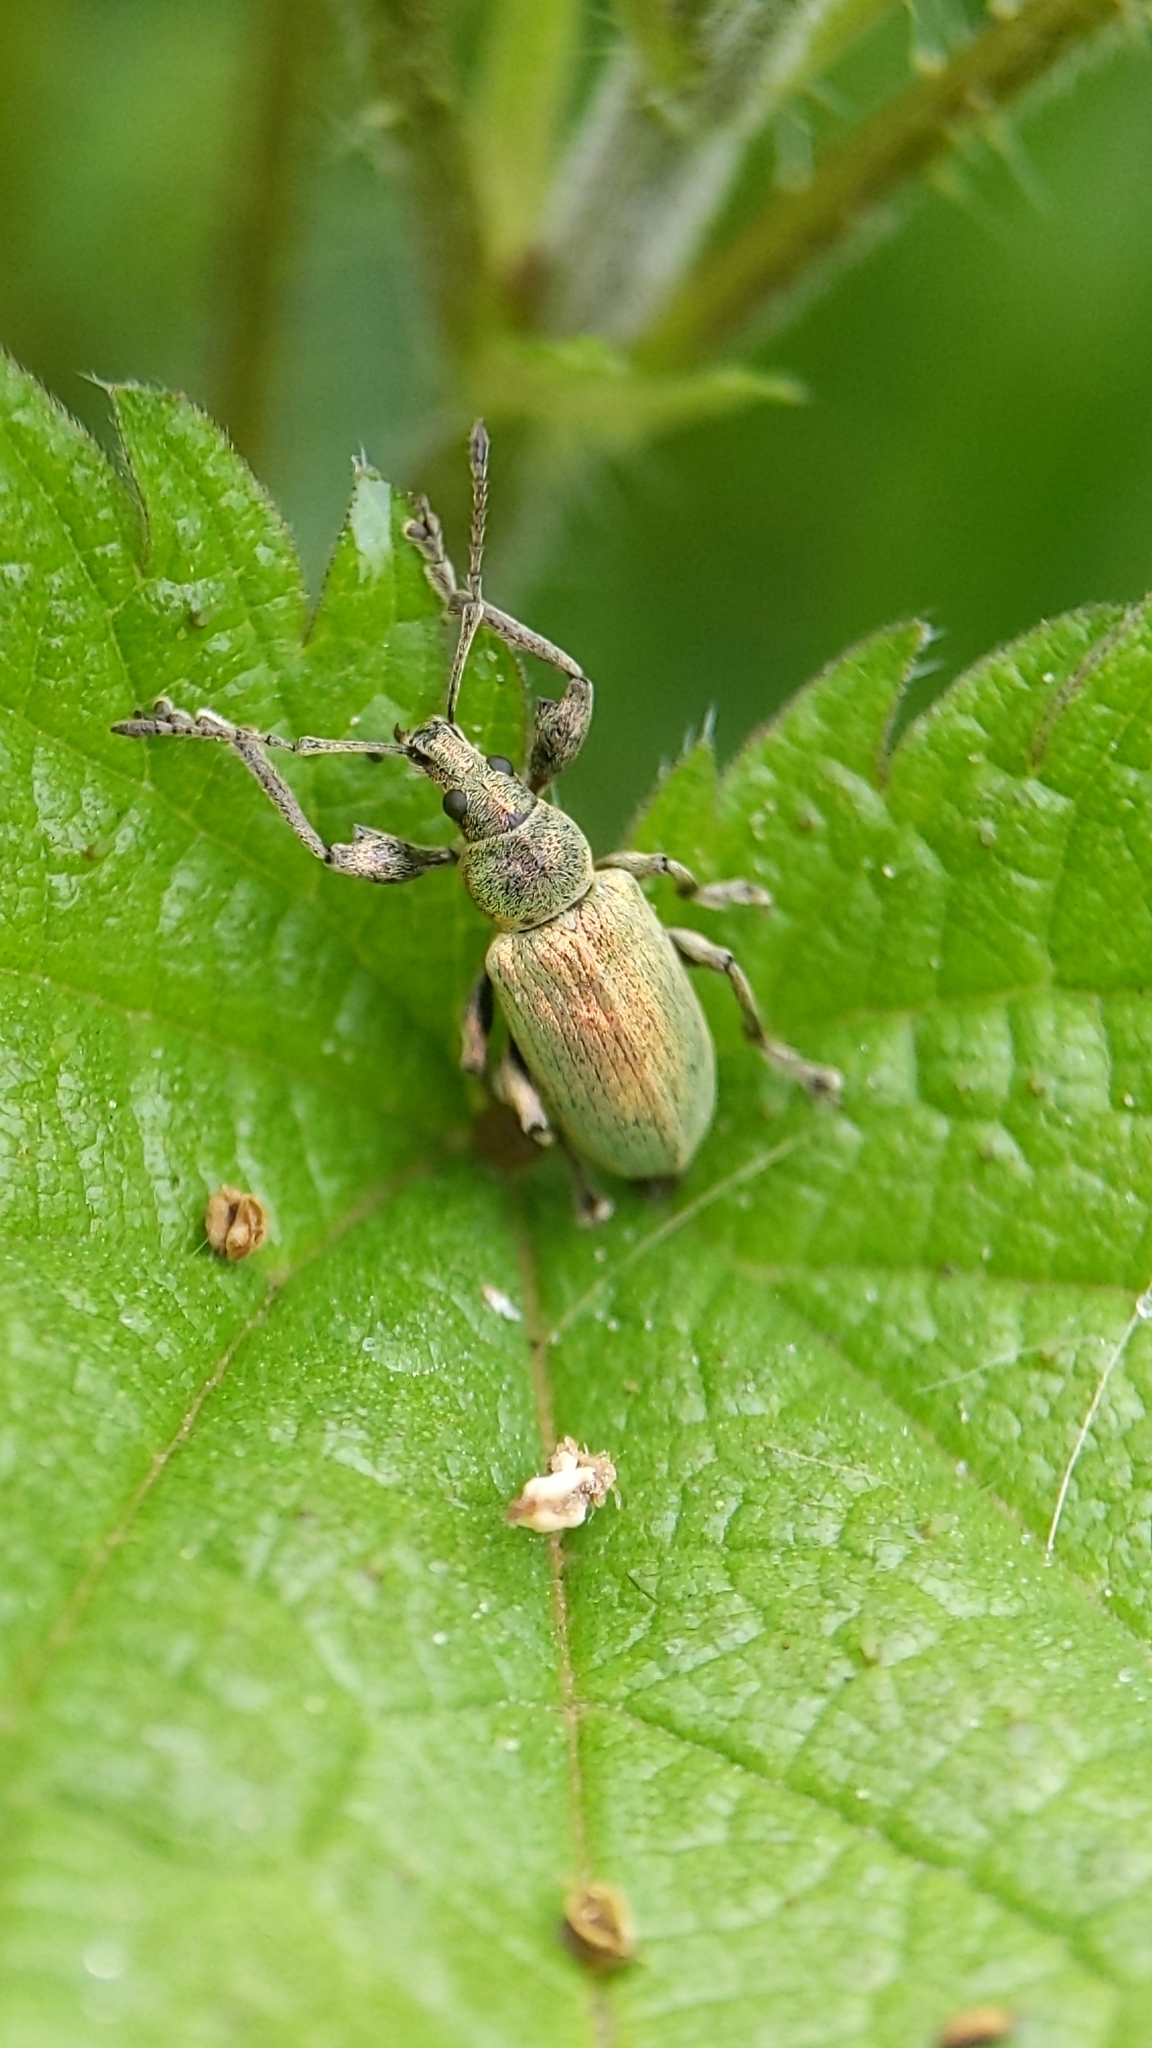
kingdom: Animalia
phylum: Arthropoda
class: Insecta
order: Coleoptera
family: Curculionidae
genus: Phyllobius
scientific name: Phyllobius pomaceus
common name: Green nettle weevil
